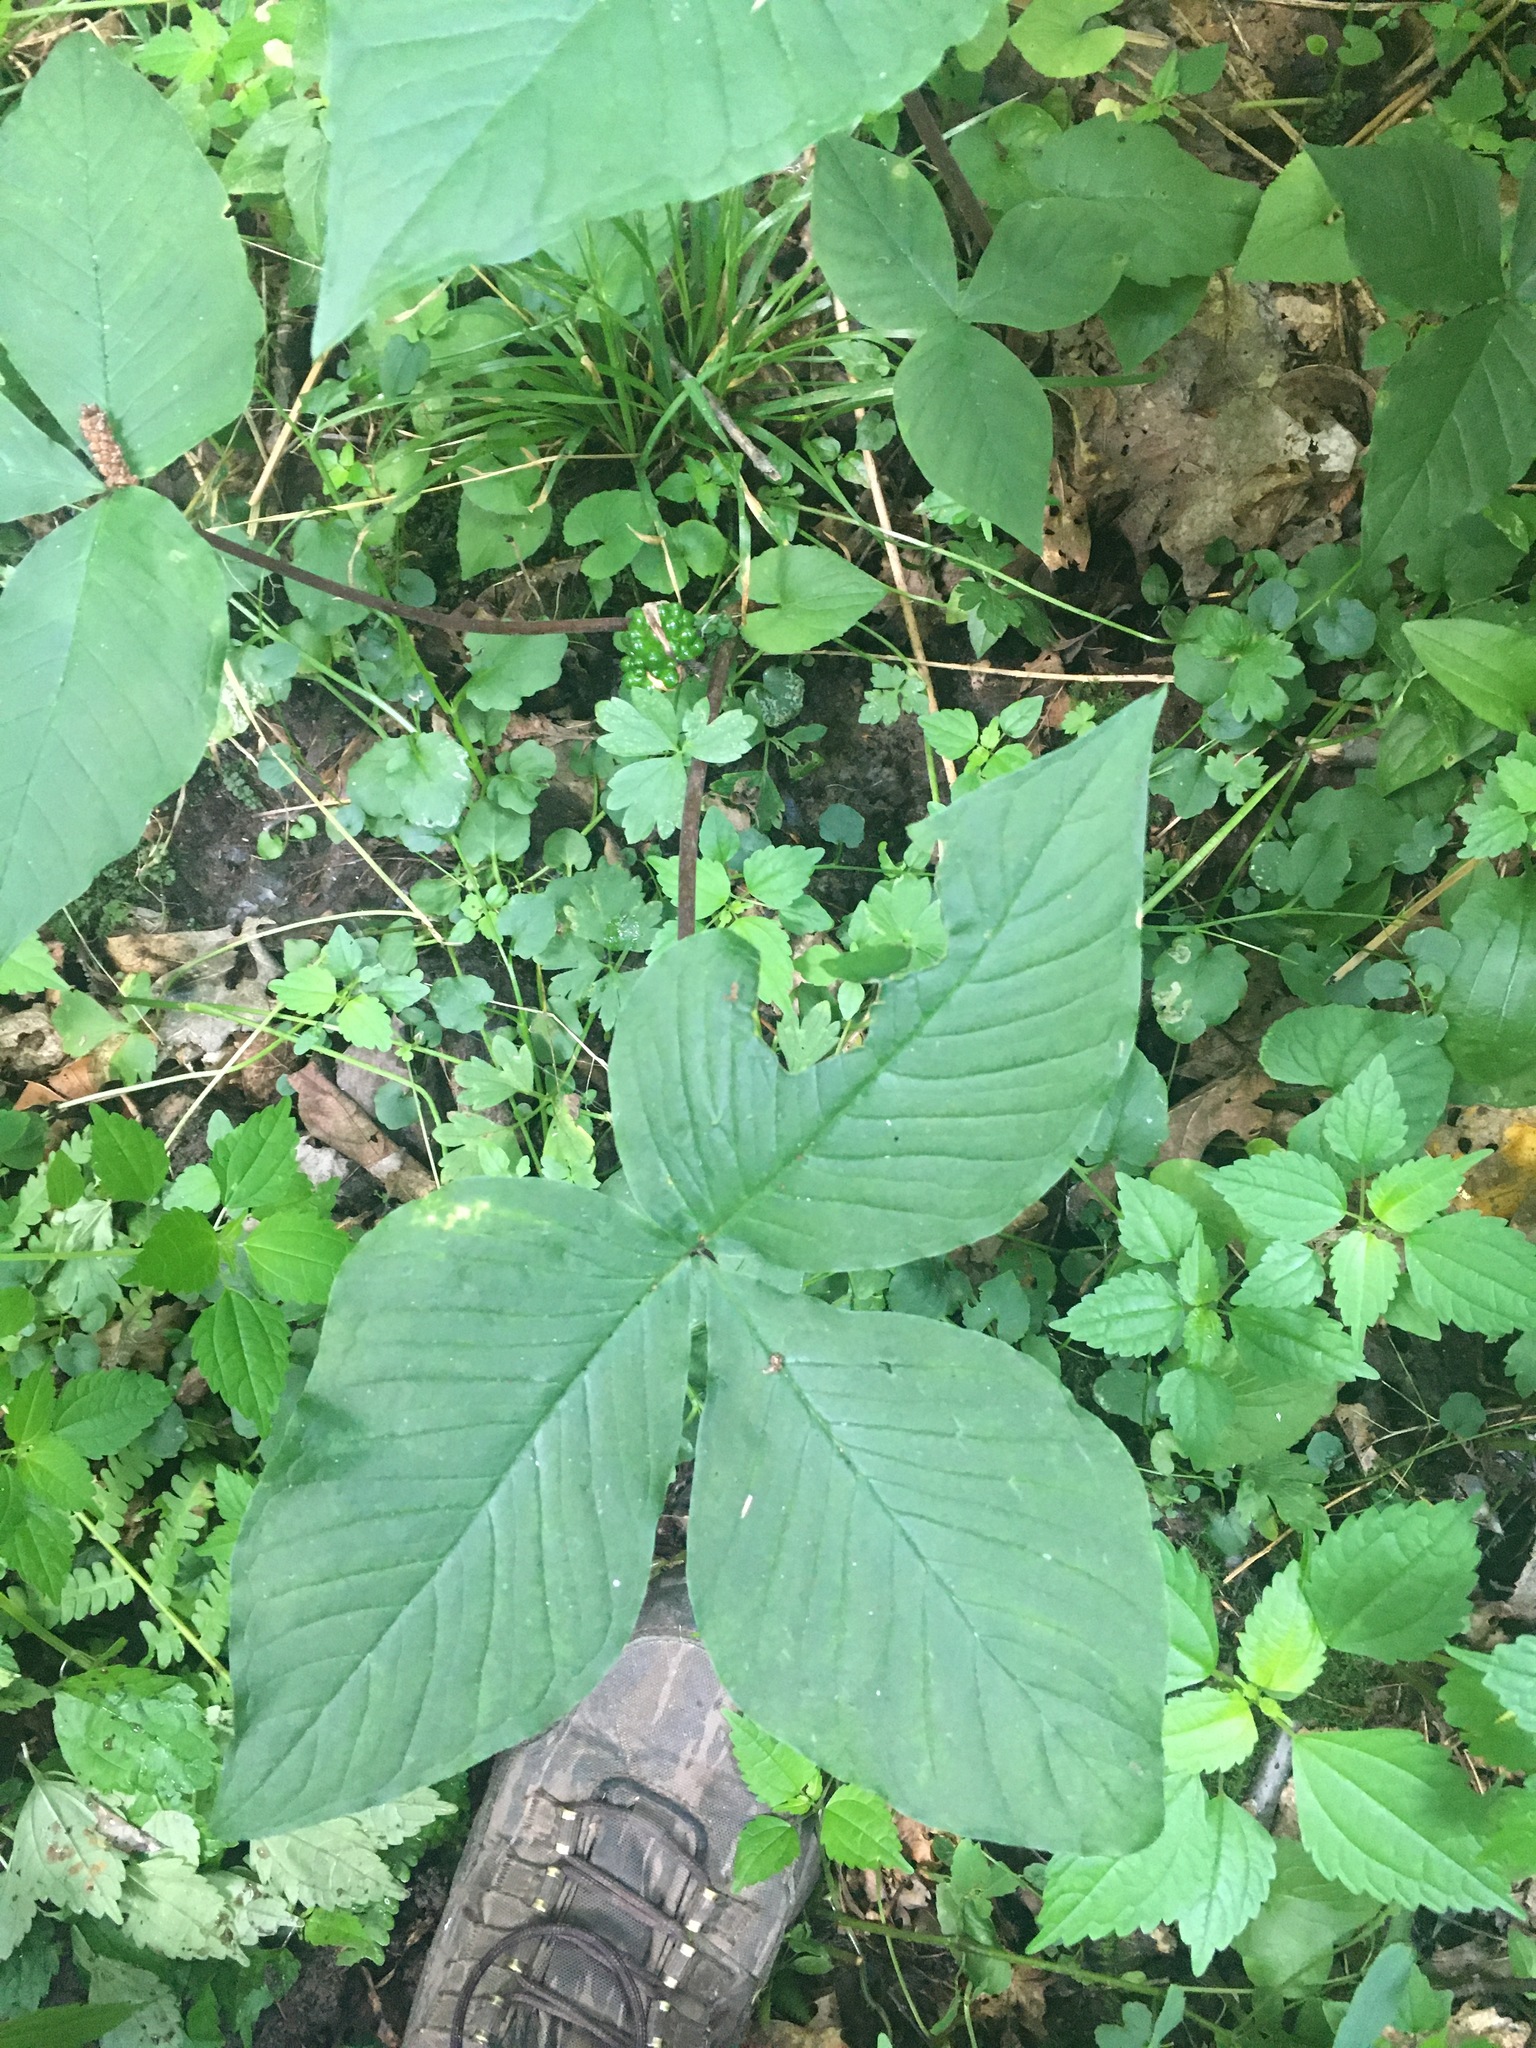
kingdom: Plantae
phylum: Tracheophyta
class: Liliopsida
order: Alismatales
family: Araceae
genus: Arisaema
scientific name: Arisaema triphyllum
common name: Jack-in-the-pulpit
